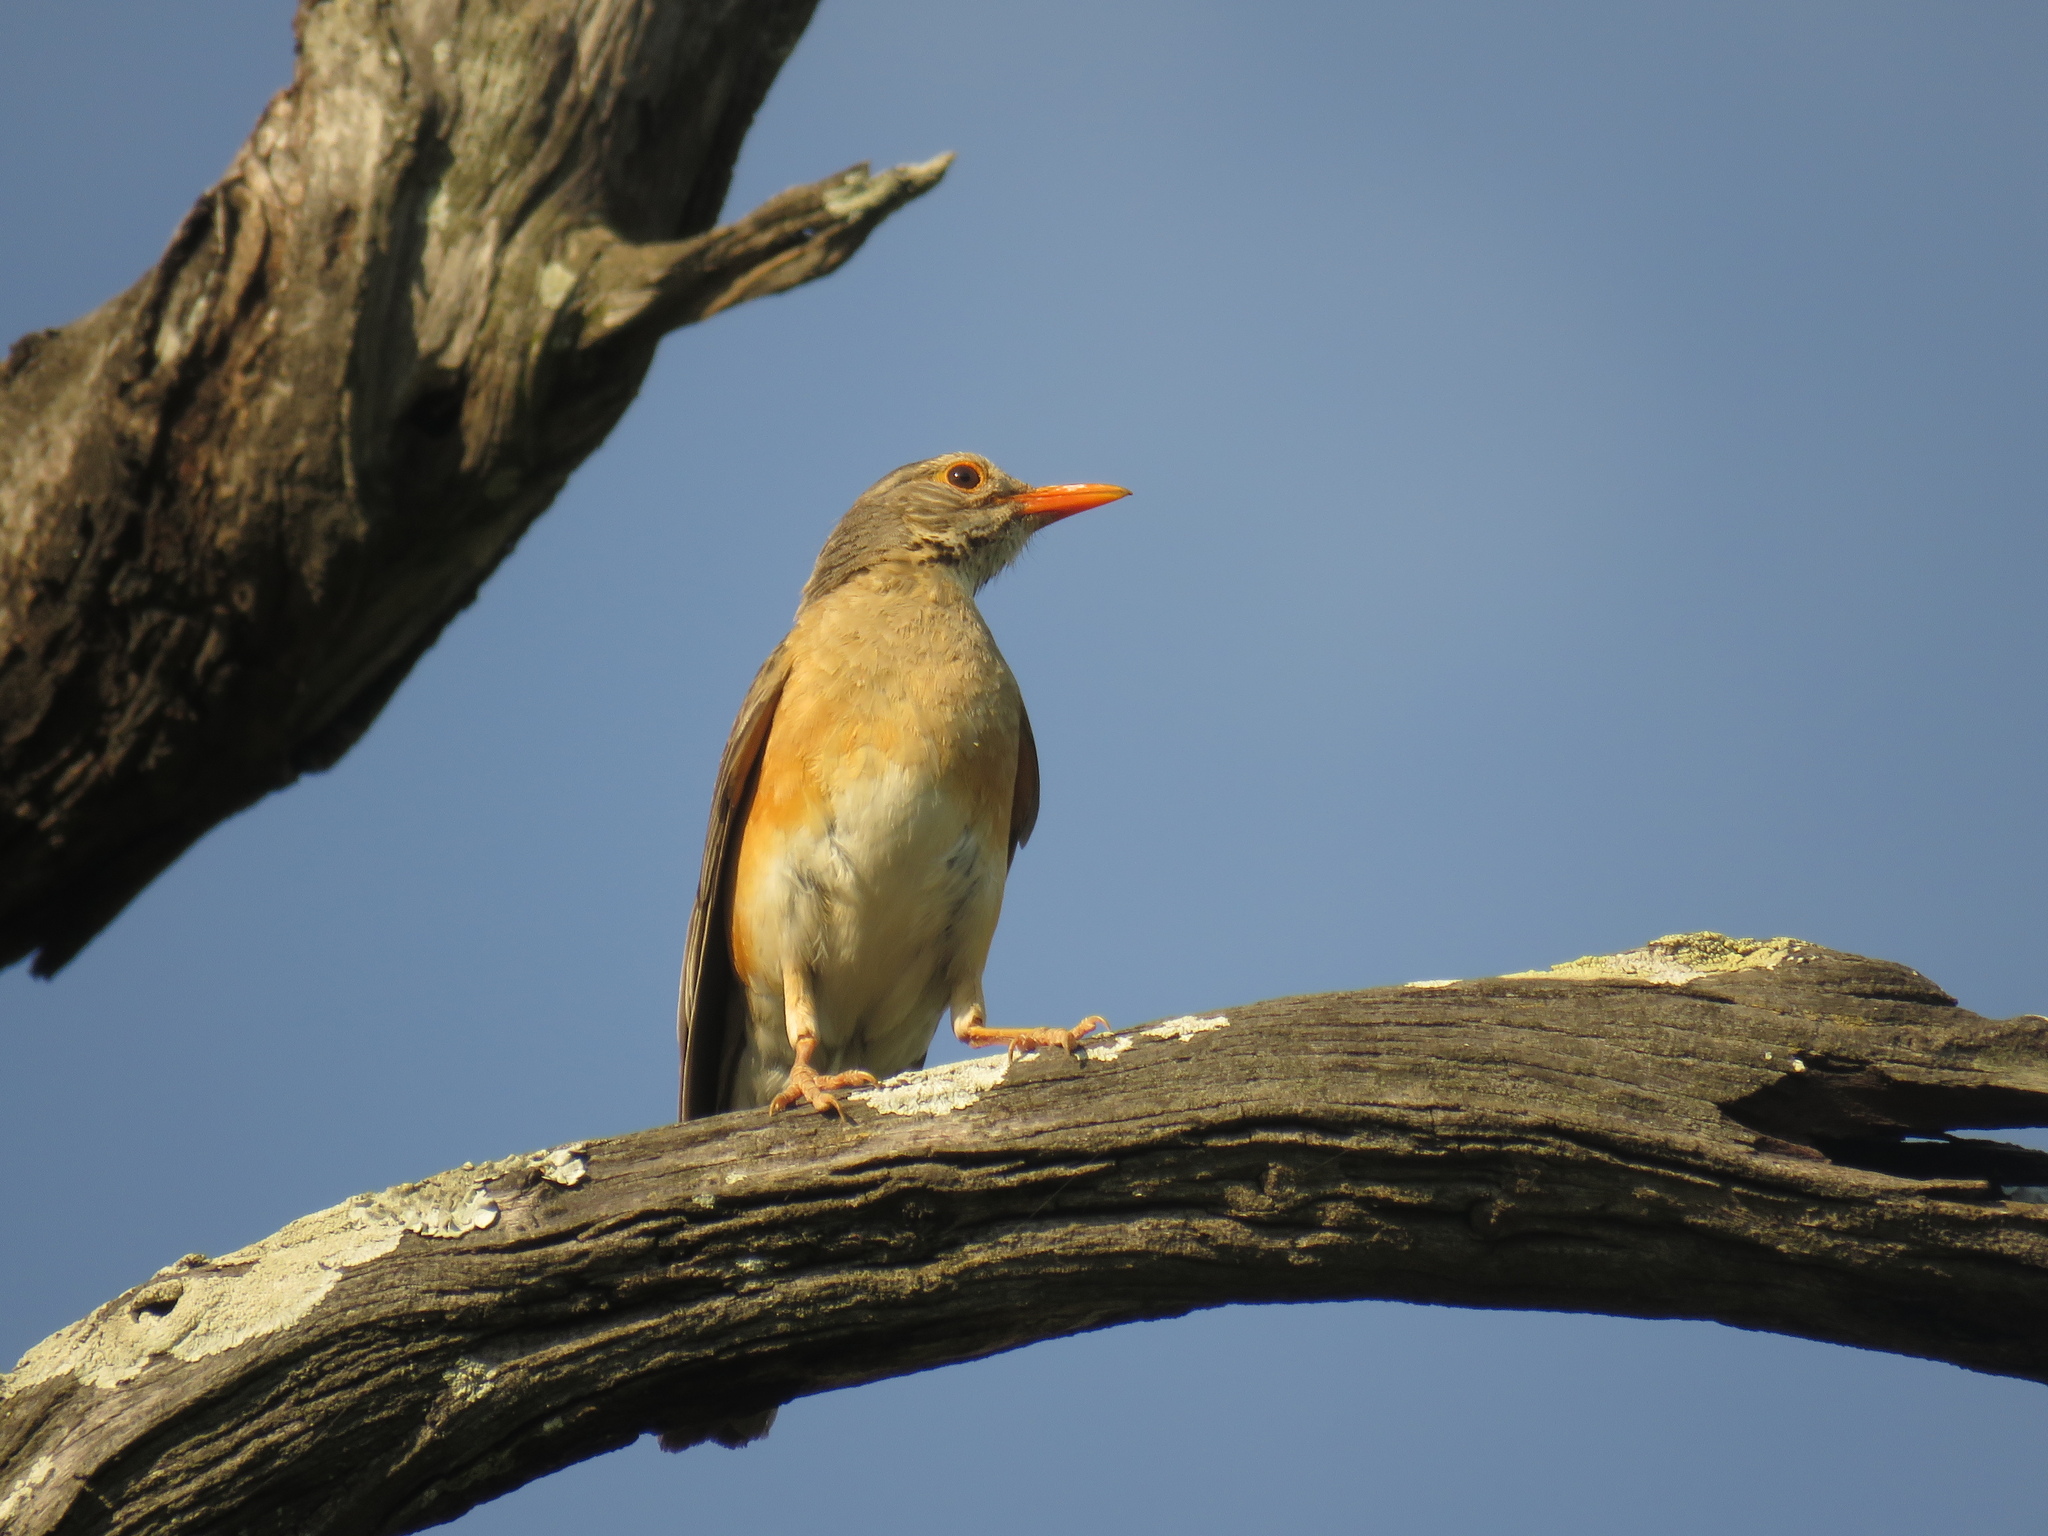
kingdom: Animalia
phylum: Chordata
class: Aves
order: Passeriformes
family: Turdidae
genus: Turdus
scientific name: Turdus libonyana
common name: Kurrichane thrush
